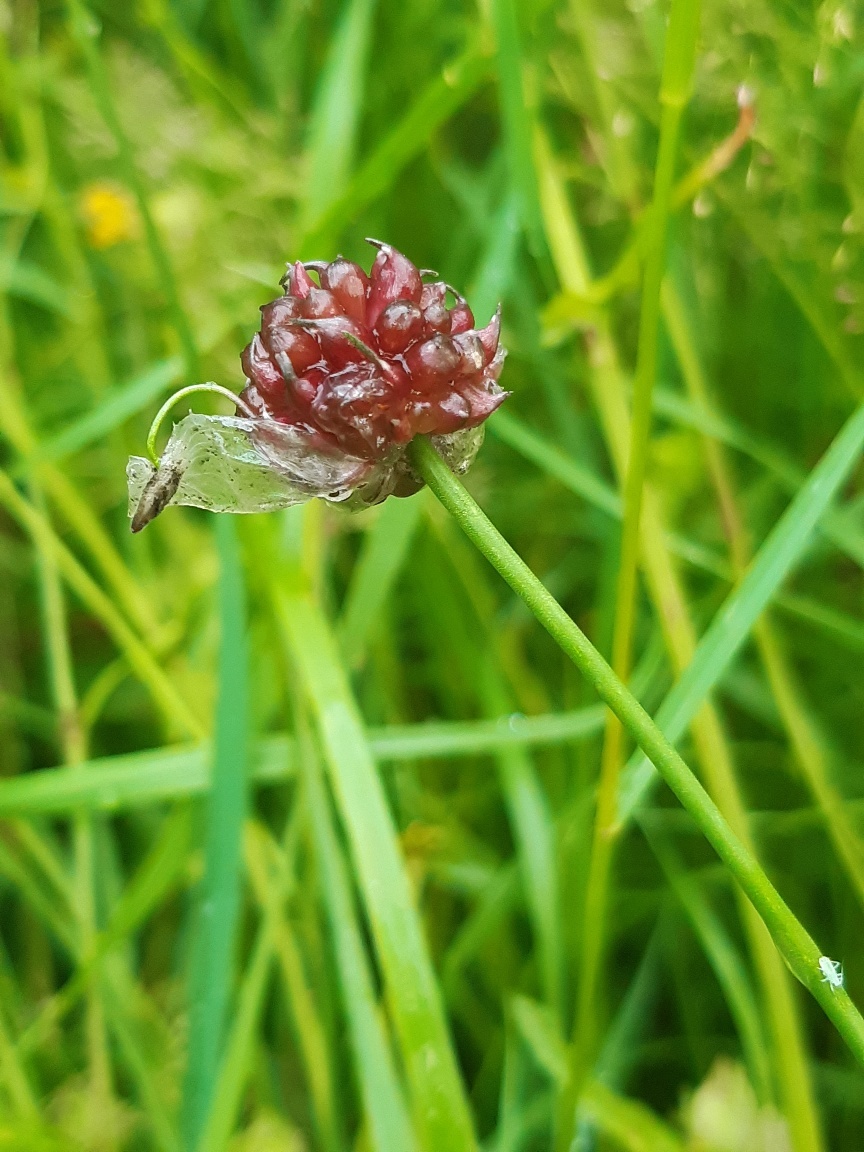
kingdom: Plantae
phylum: Tracheophyta
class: Liliopsida
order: Asparagales
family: Amaryllidaceae
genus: Allium
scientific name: Allium vineale
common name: Crow garlic
